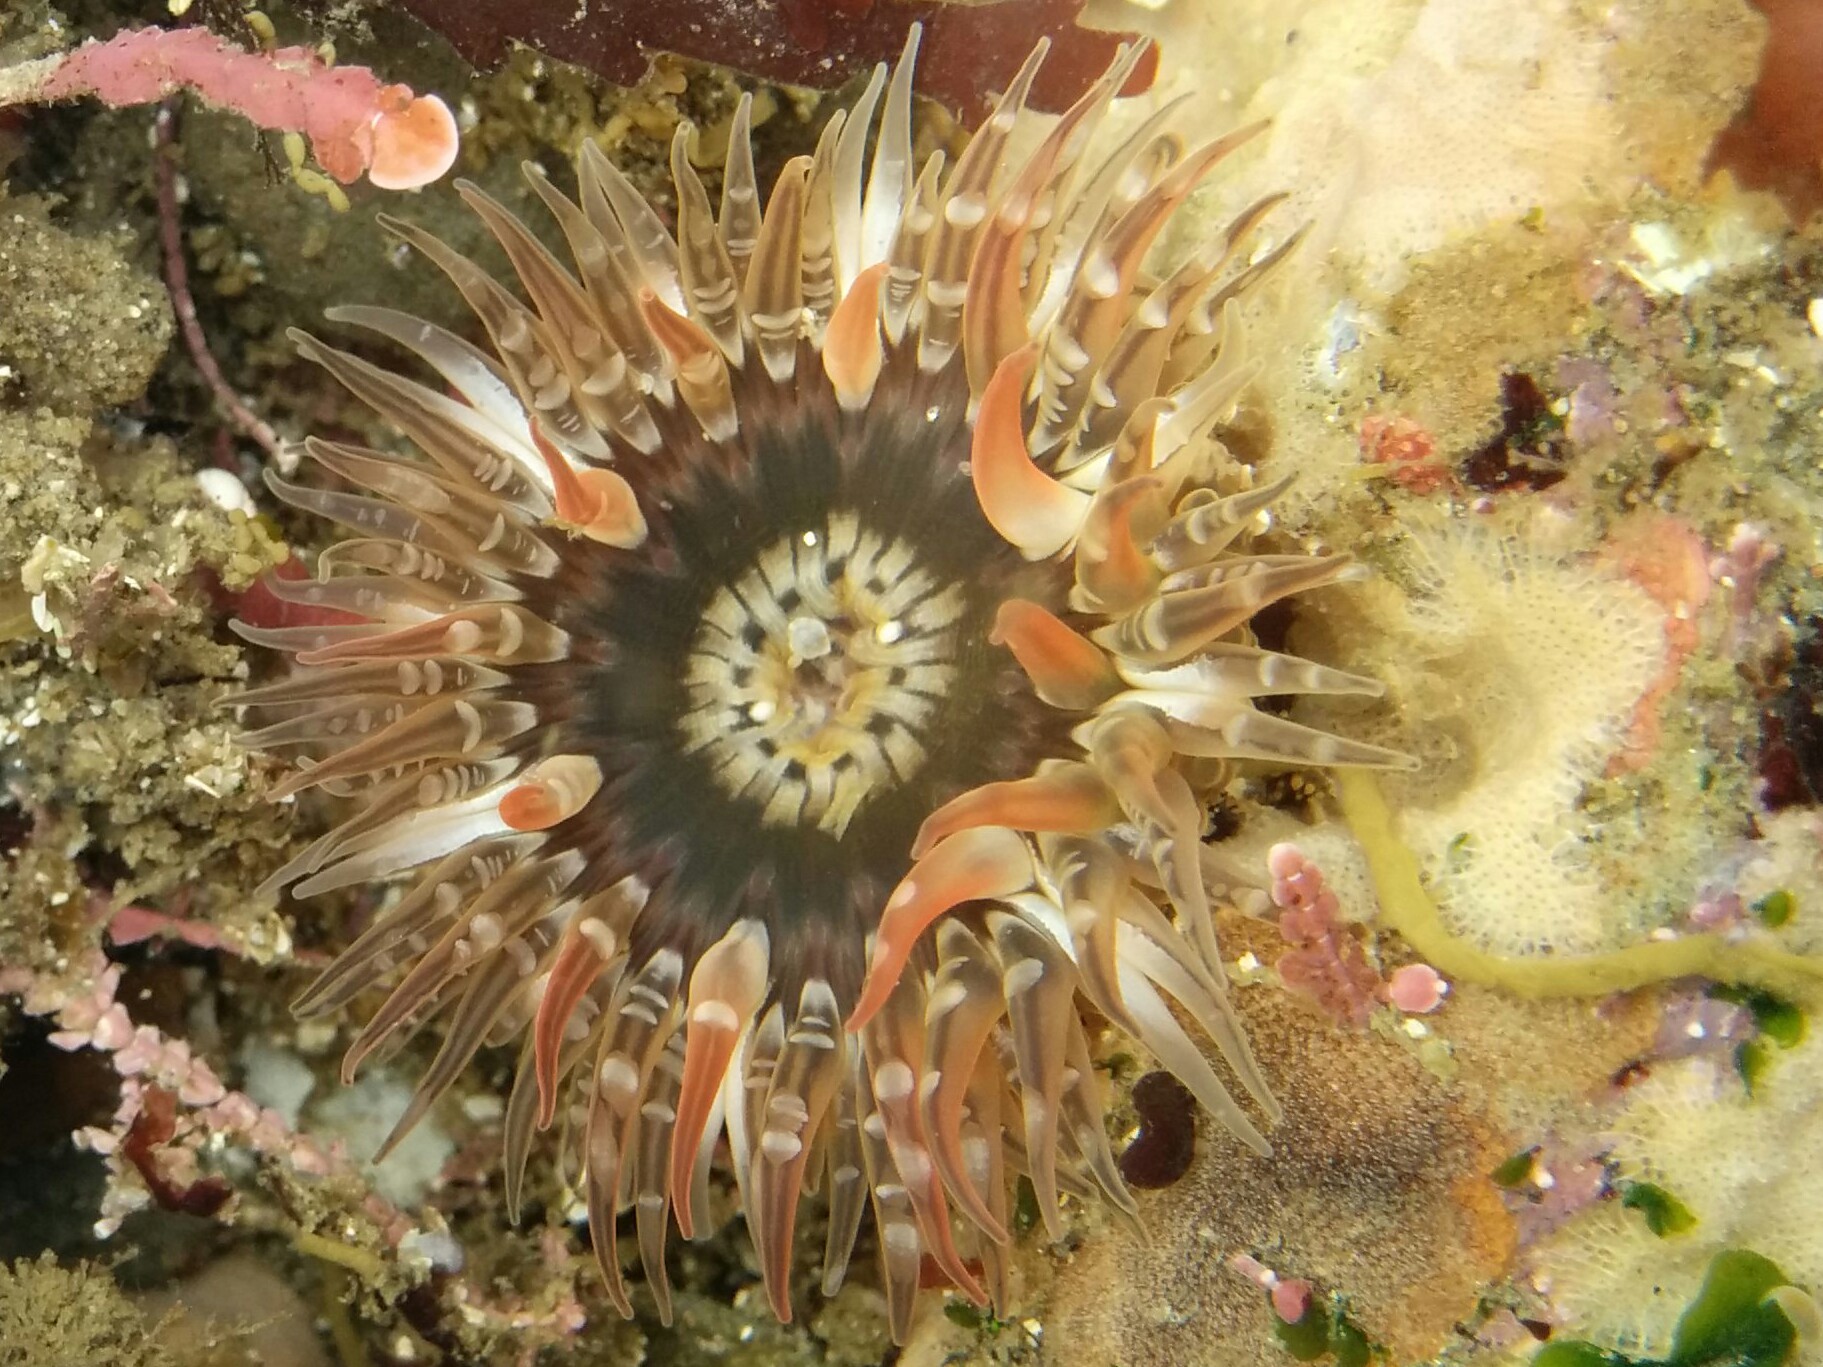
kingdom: Animalia
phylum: Cnidaria
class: Anthozoa
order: Actiniaria
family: Actiniidae
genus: Anthopleura
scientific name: Anthopleura artemisia
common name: Buried sea anemone
